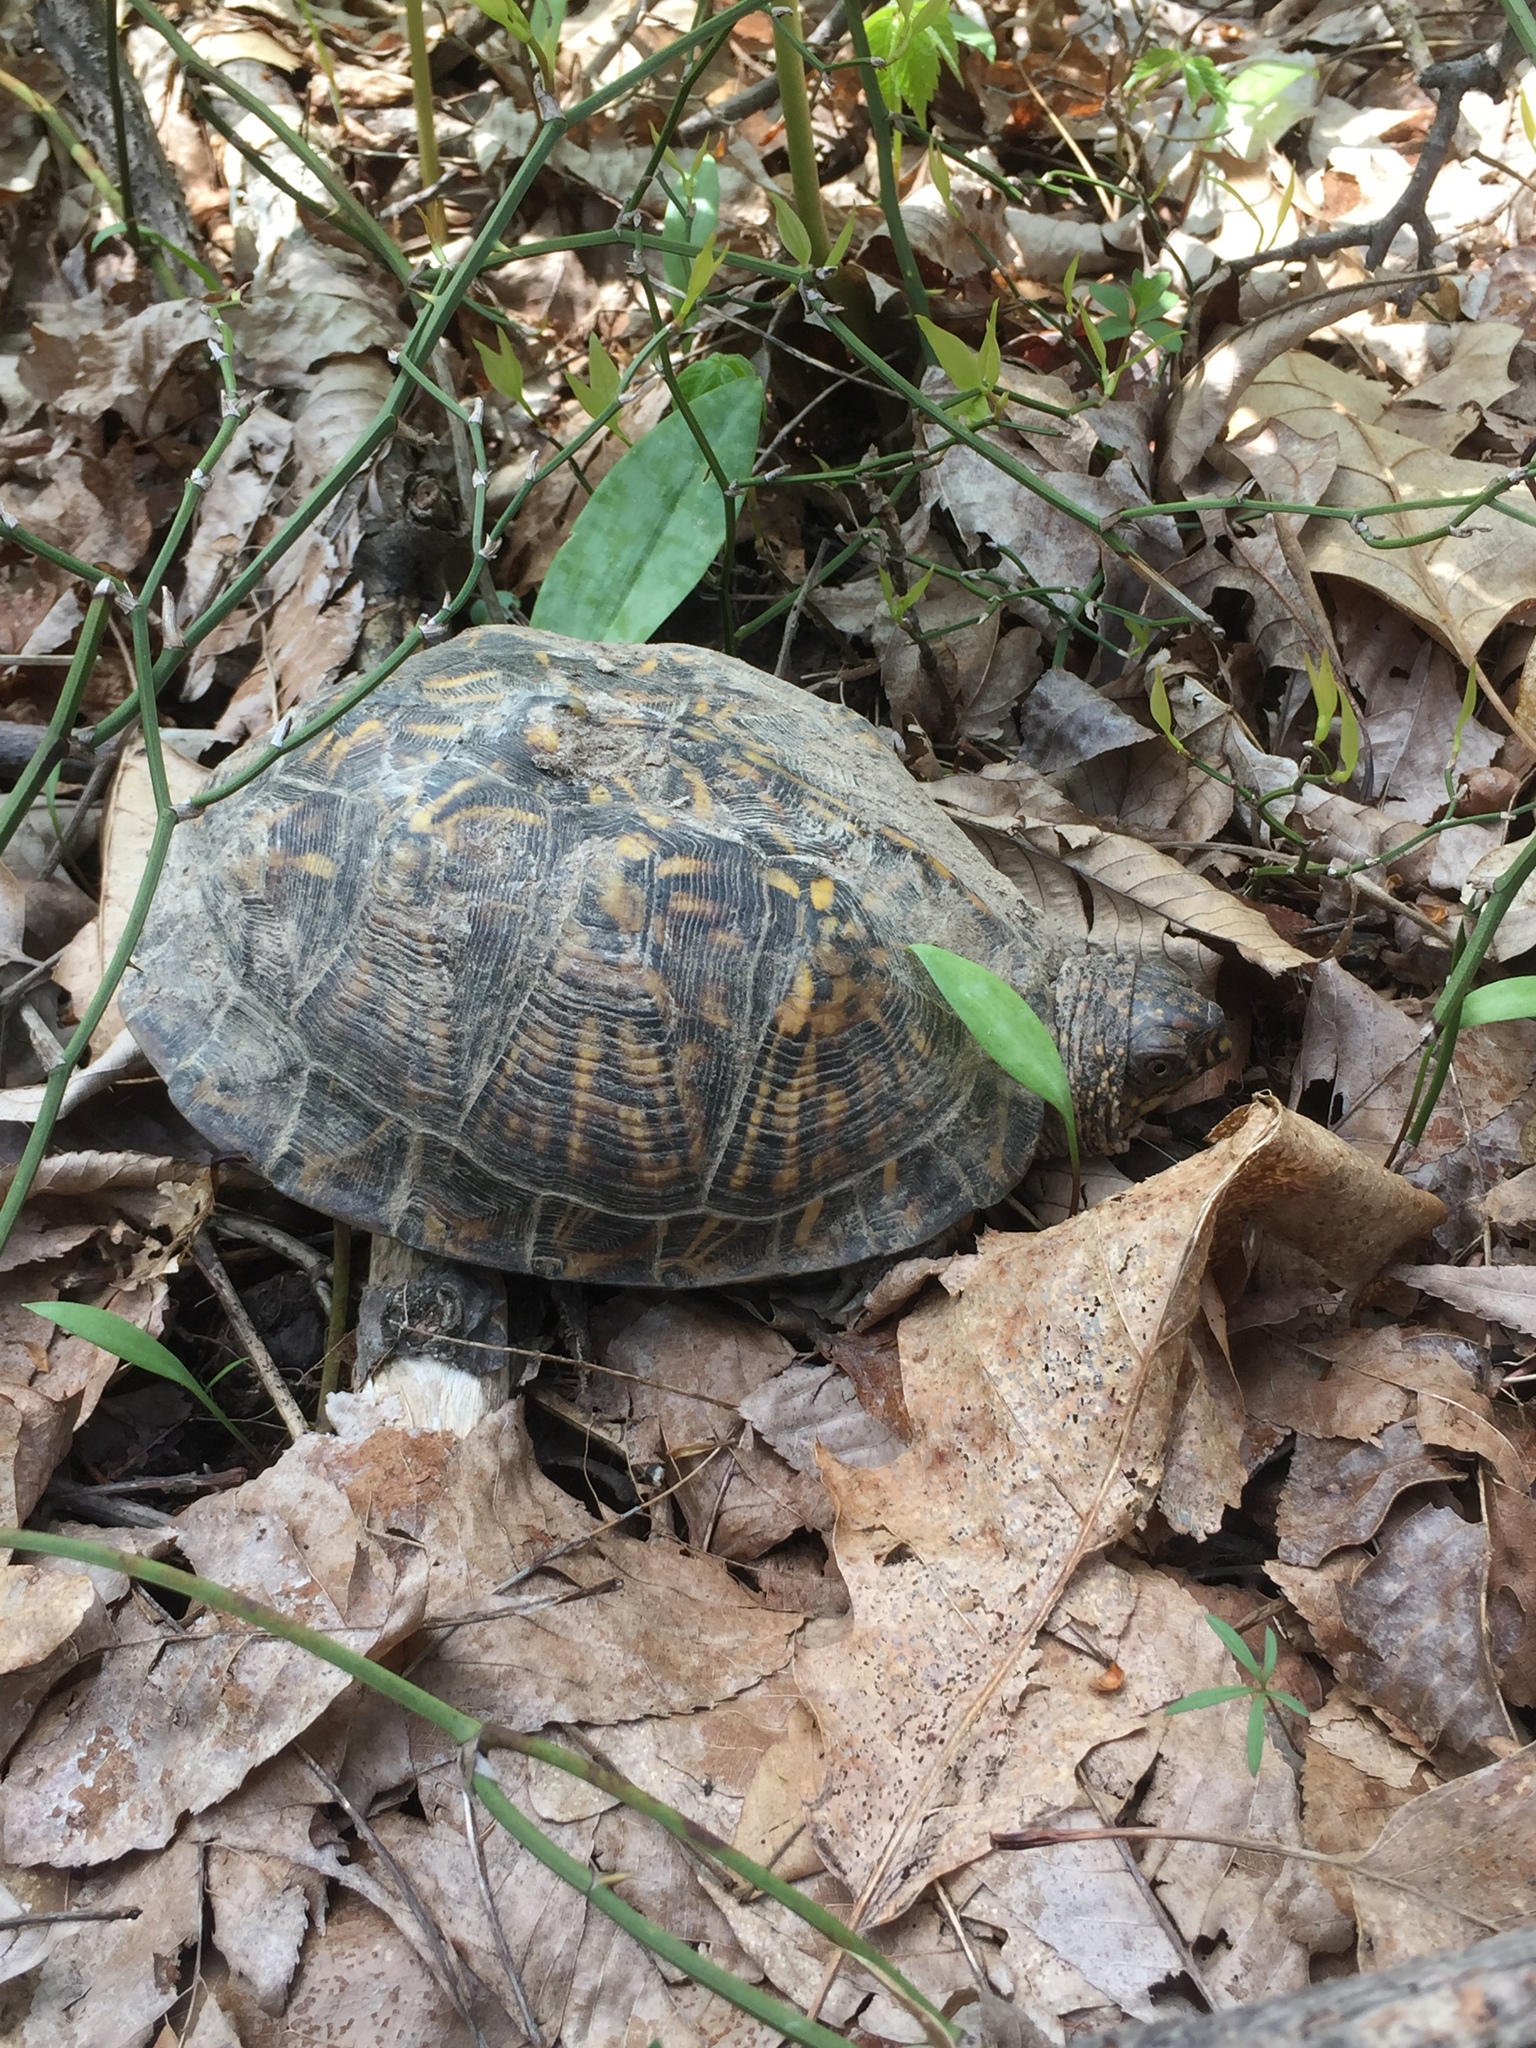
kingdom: Animalia
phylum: Chordata
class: Testudines
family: Emydidae
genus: Terrapene
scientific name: Terrapene carolina
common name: Common box turtle
